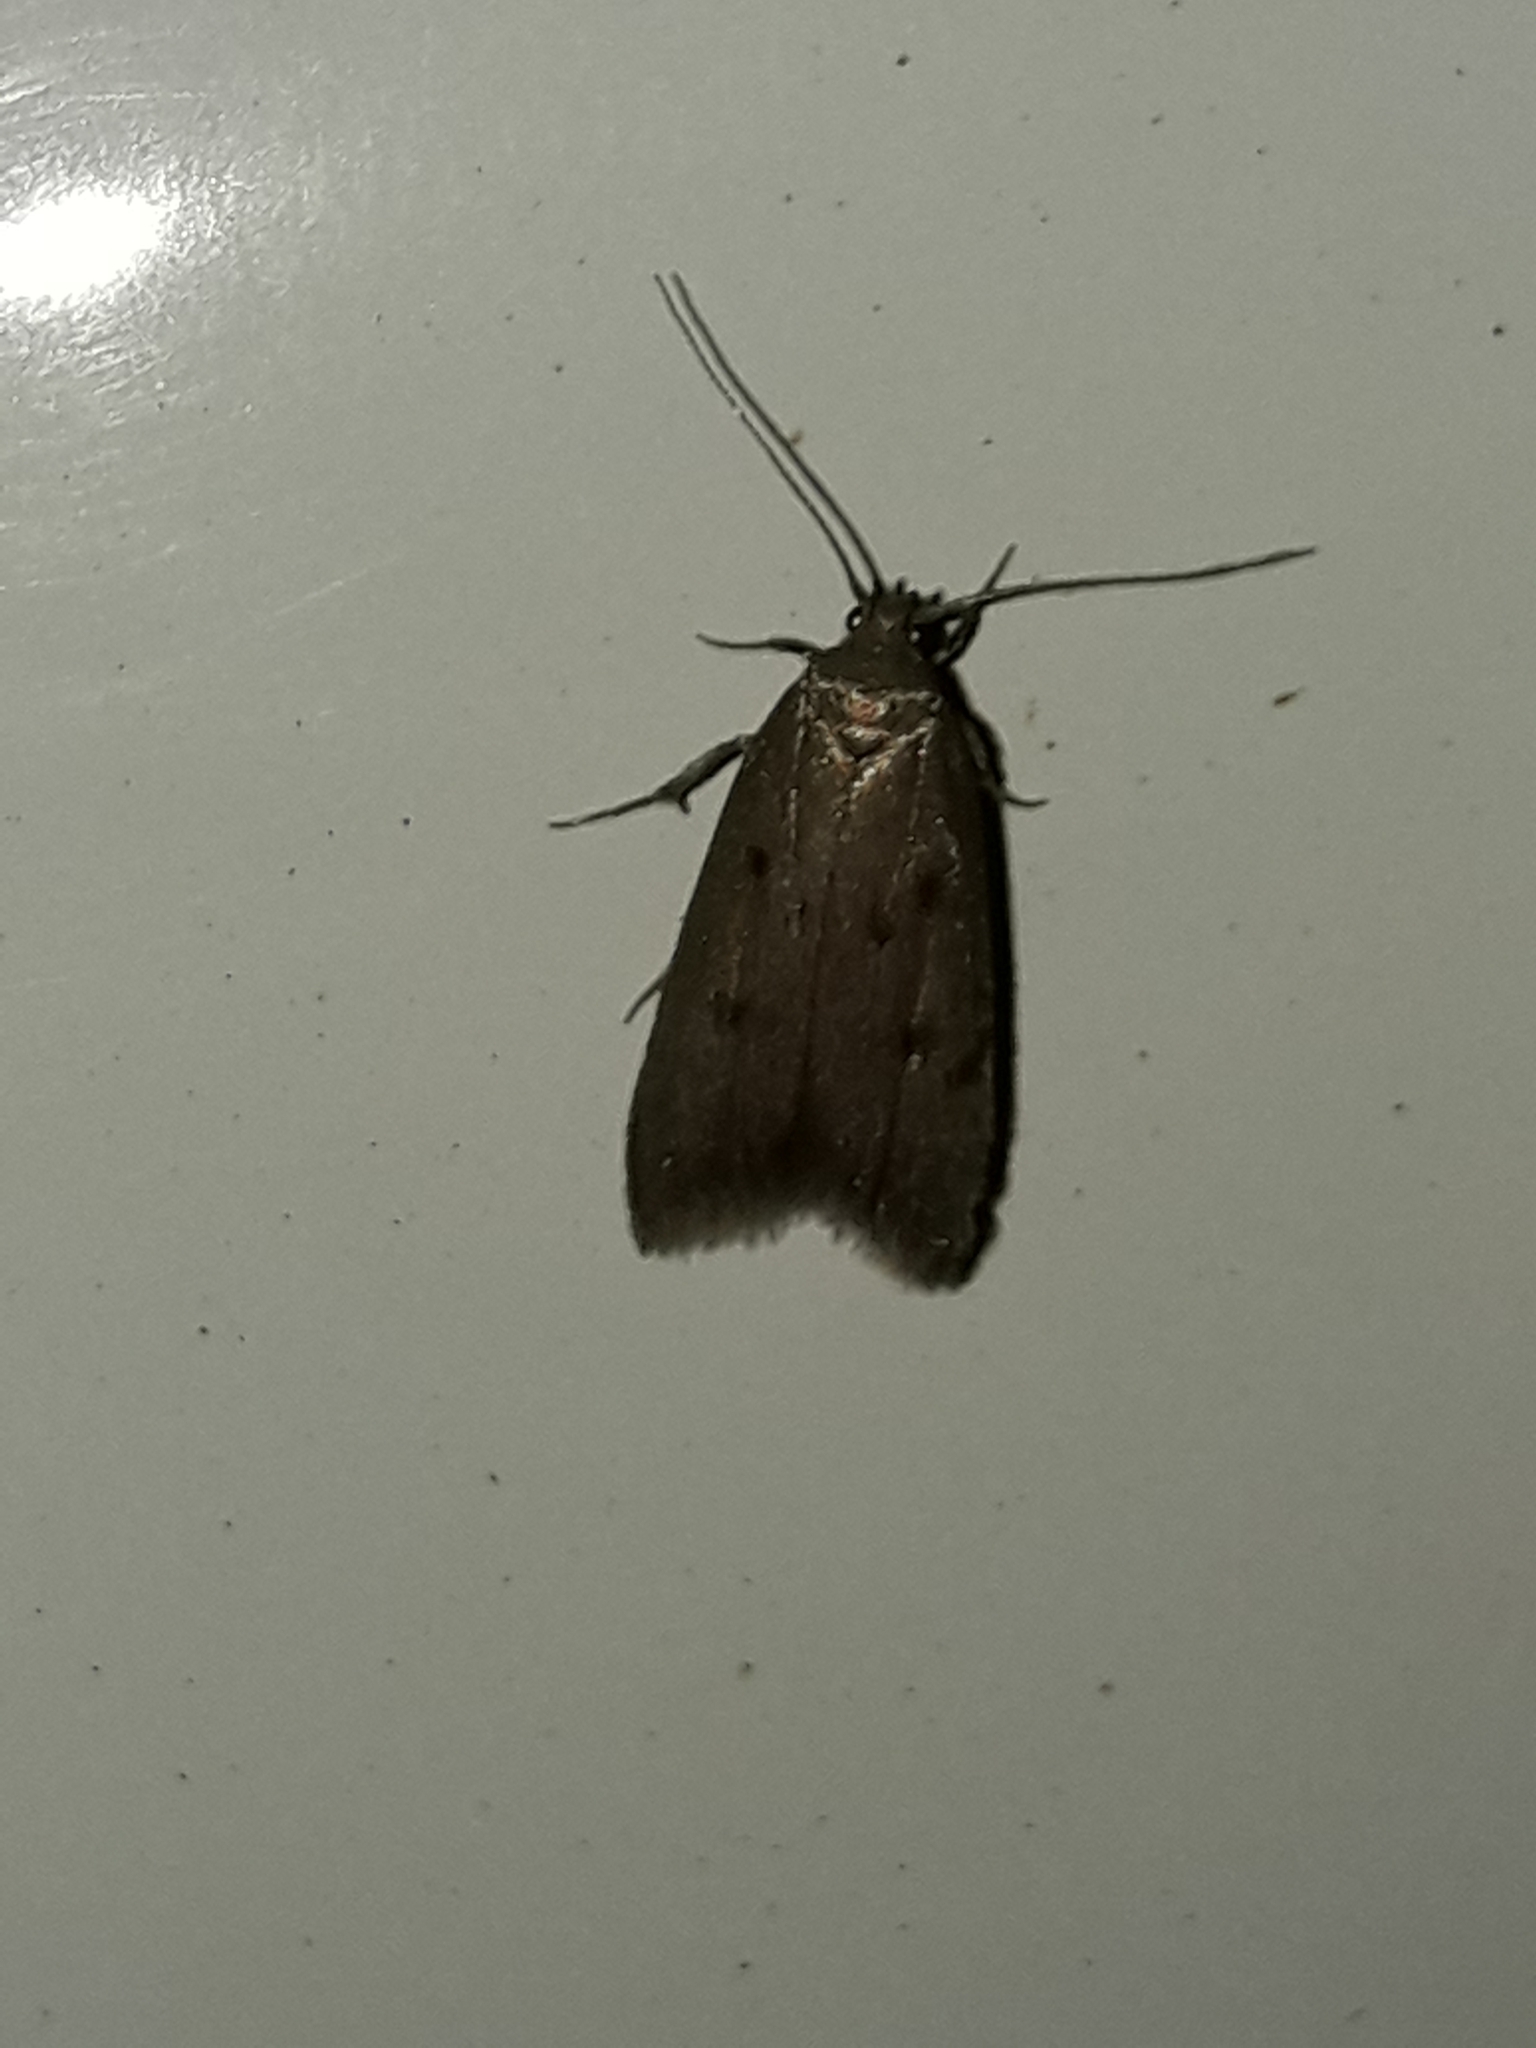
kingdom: Animalia
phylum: Arthropoda
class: Insecta
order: Lepidoptera
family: Oecophoridae
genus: Tachystola
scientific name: Tachystola acroxantha
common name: Ruddy streak
